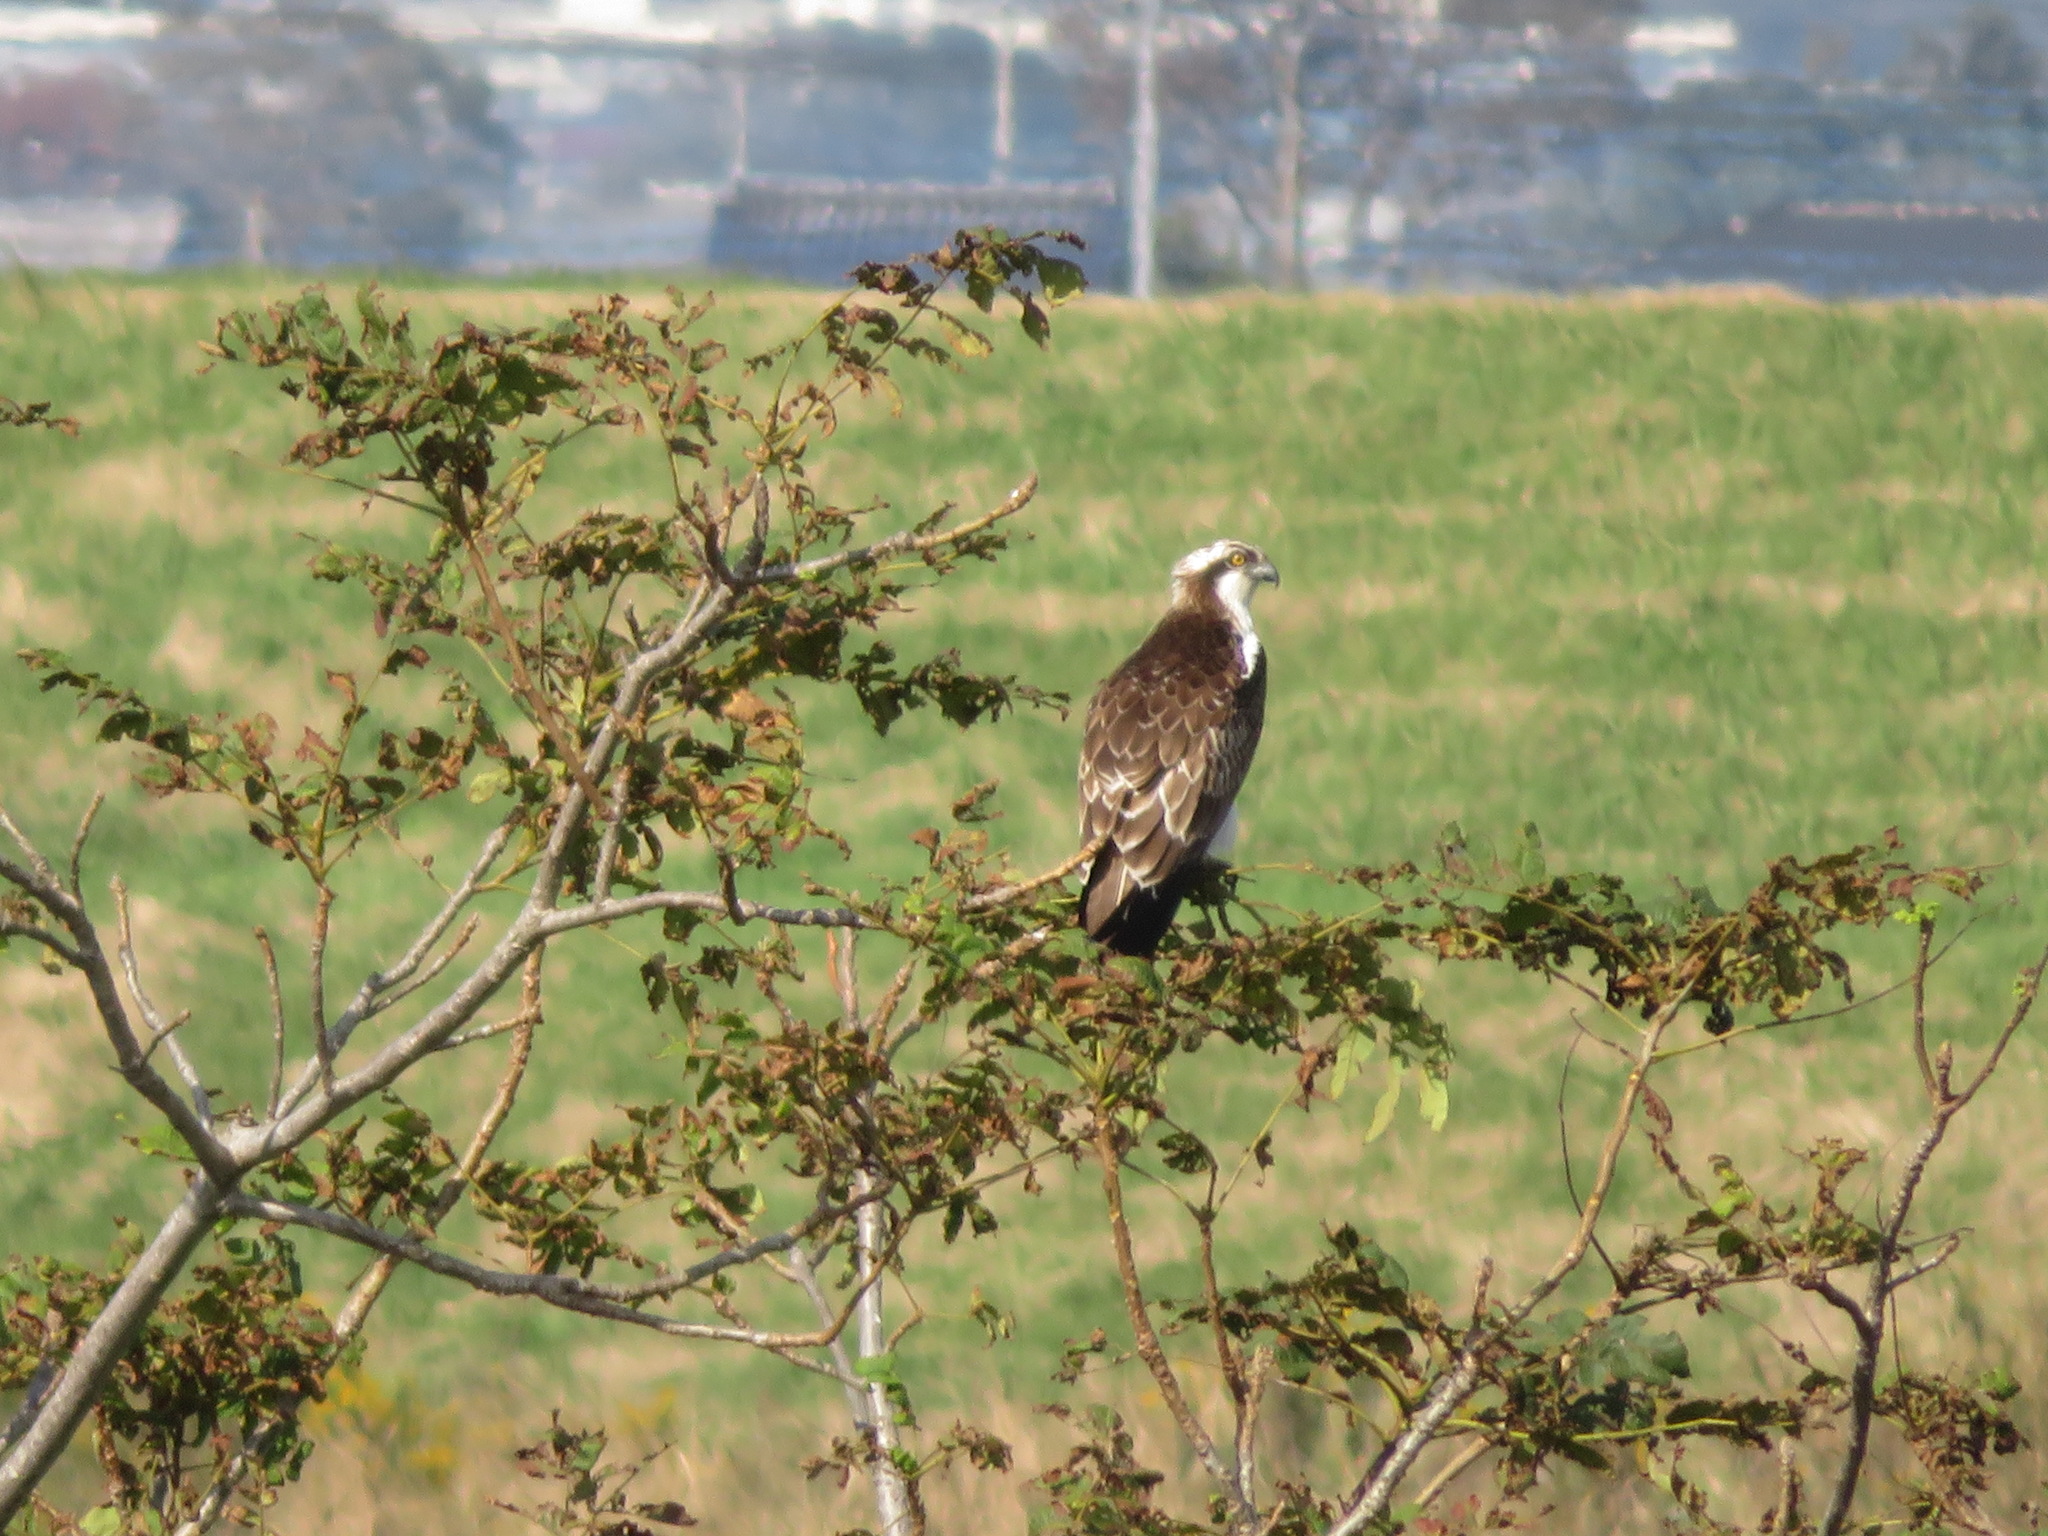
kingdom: Animalia
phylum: Chordata
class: Aves
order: Accipitriformes
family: Pandionidae
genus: Pandion
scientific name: Pandion haliaetus
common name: Osprey
